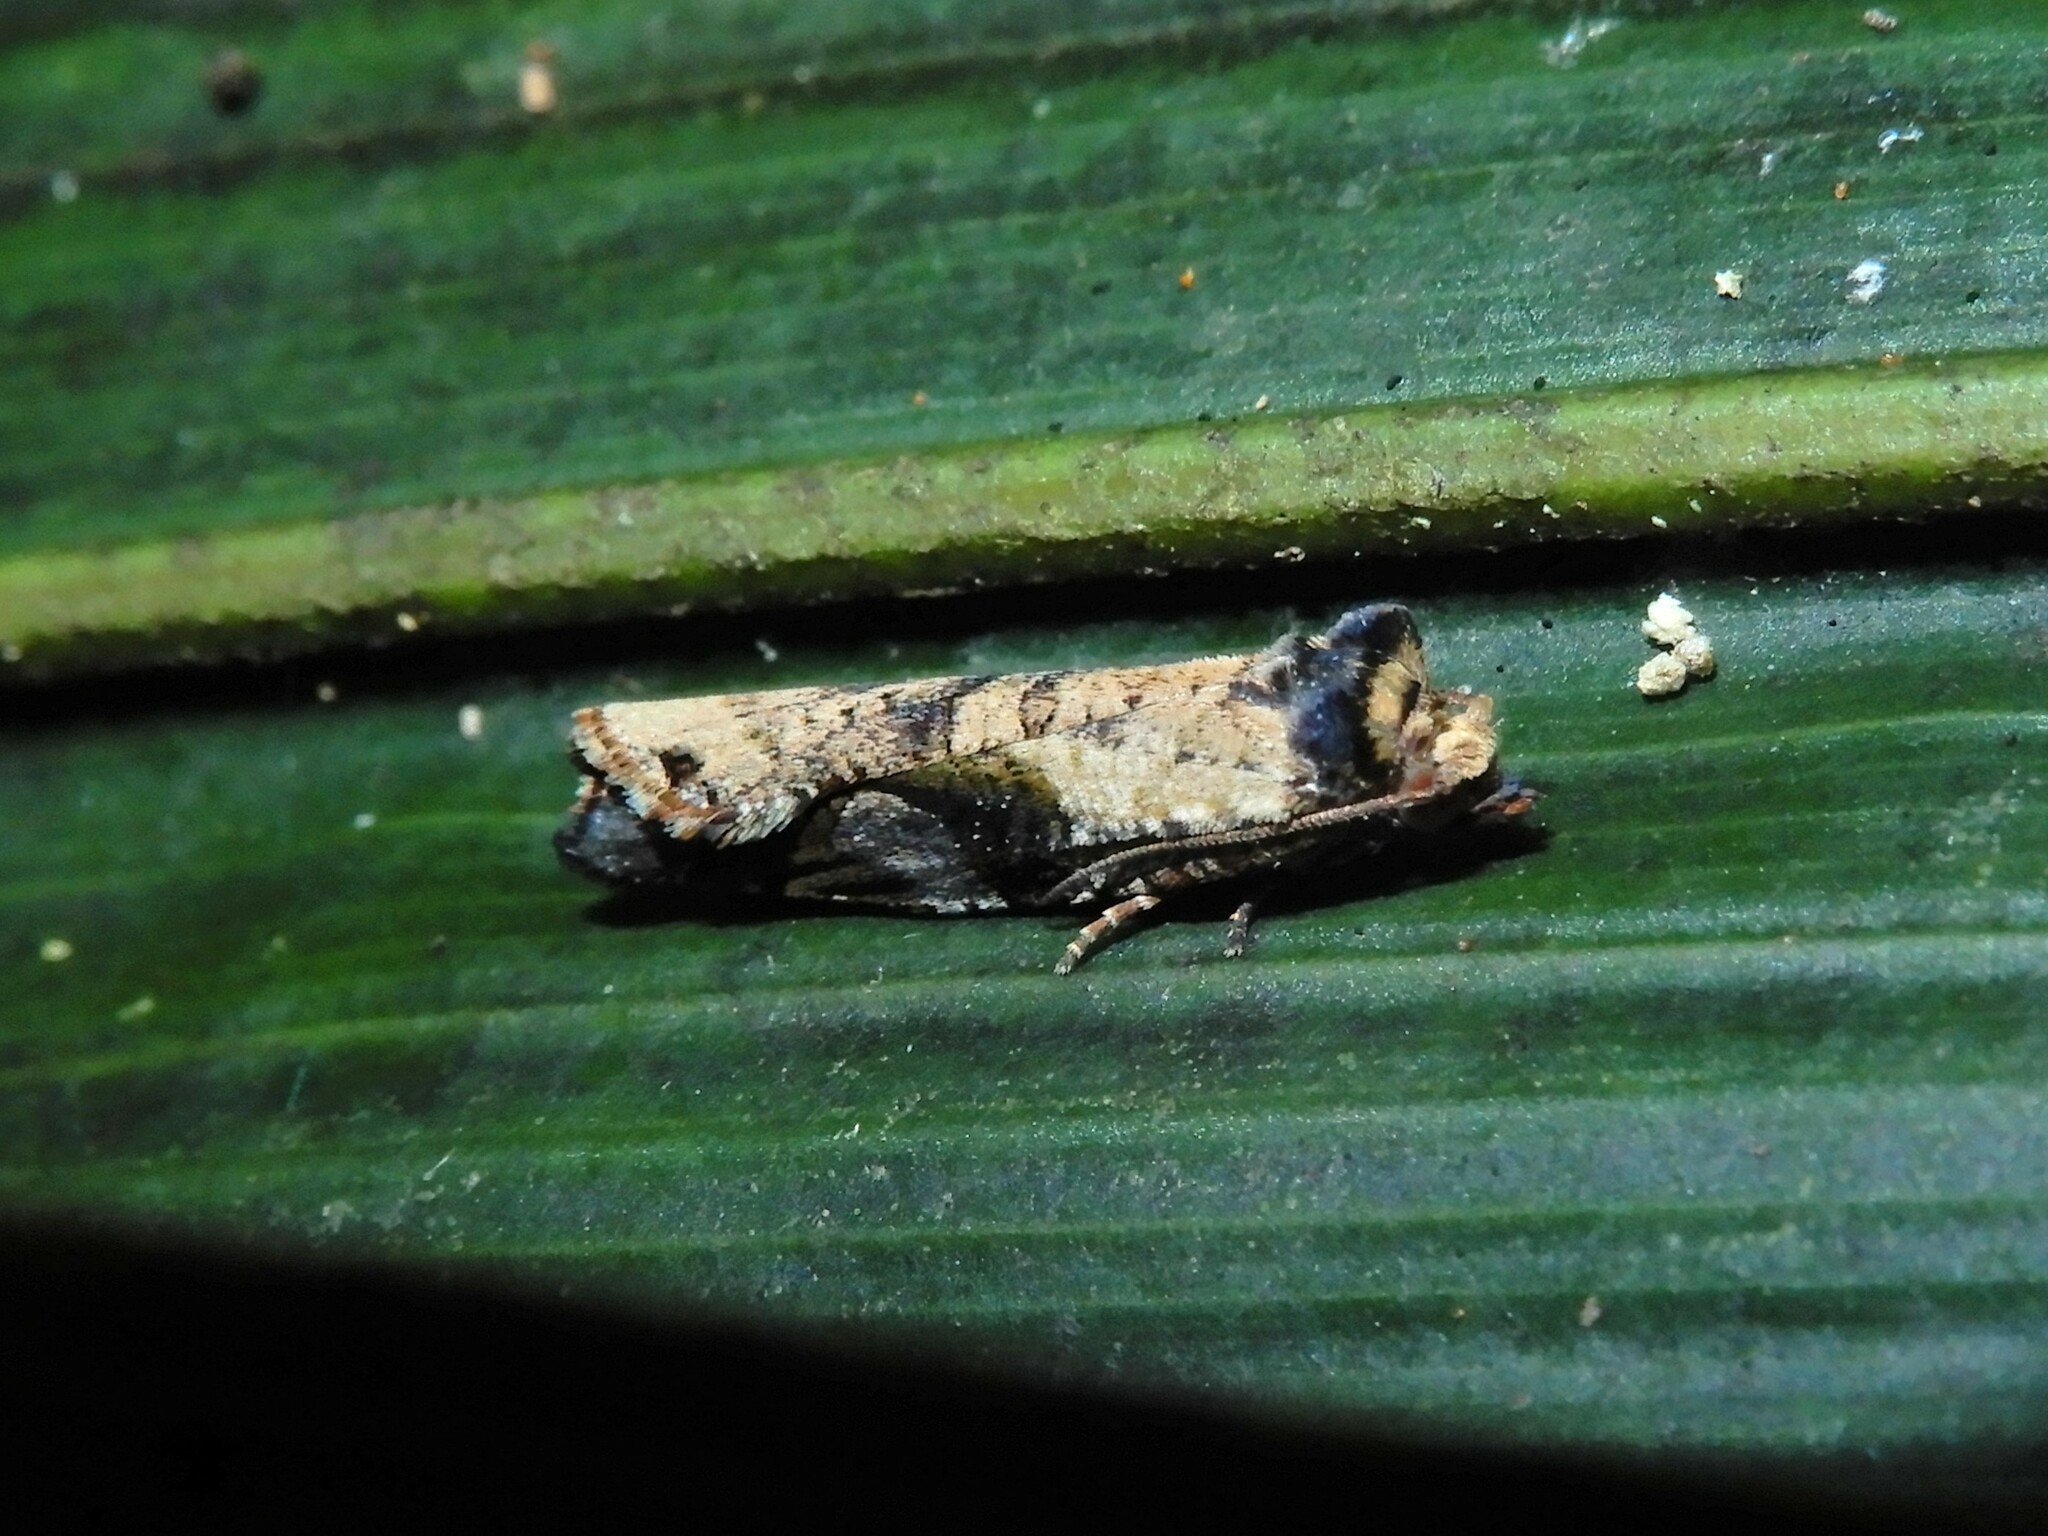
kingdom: Animalia
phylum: Arthropoda
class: Insecta
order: Lepidoptera
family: Tortricidae
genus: Epalxiphora
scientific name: Epalxiphora axenana
